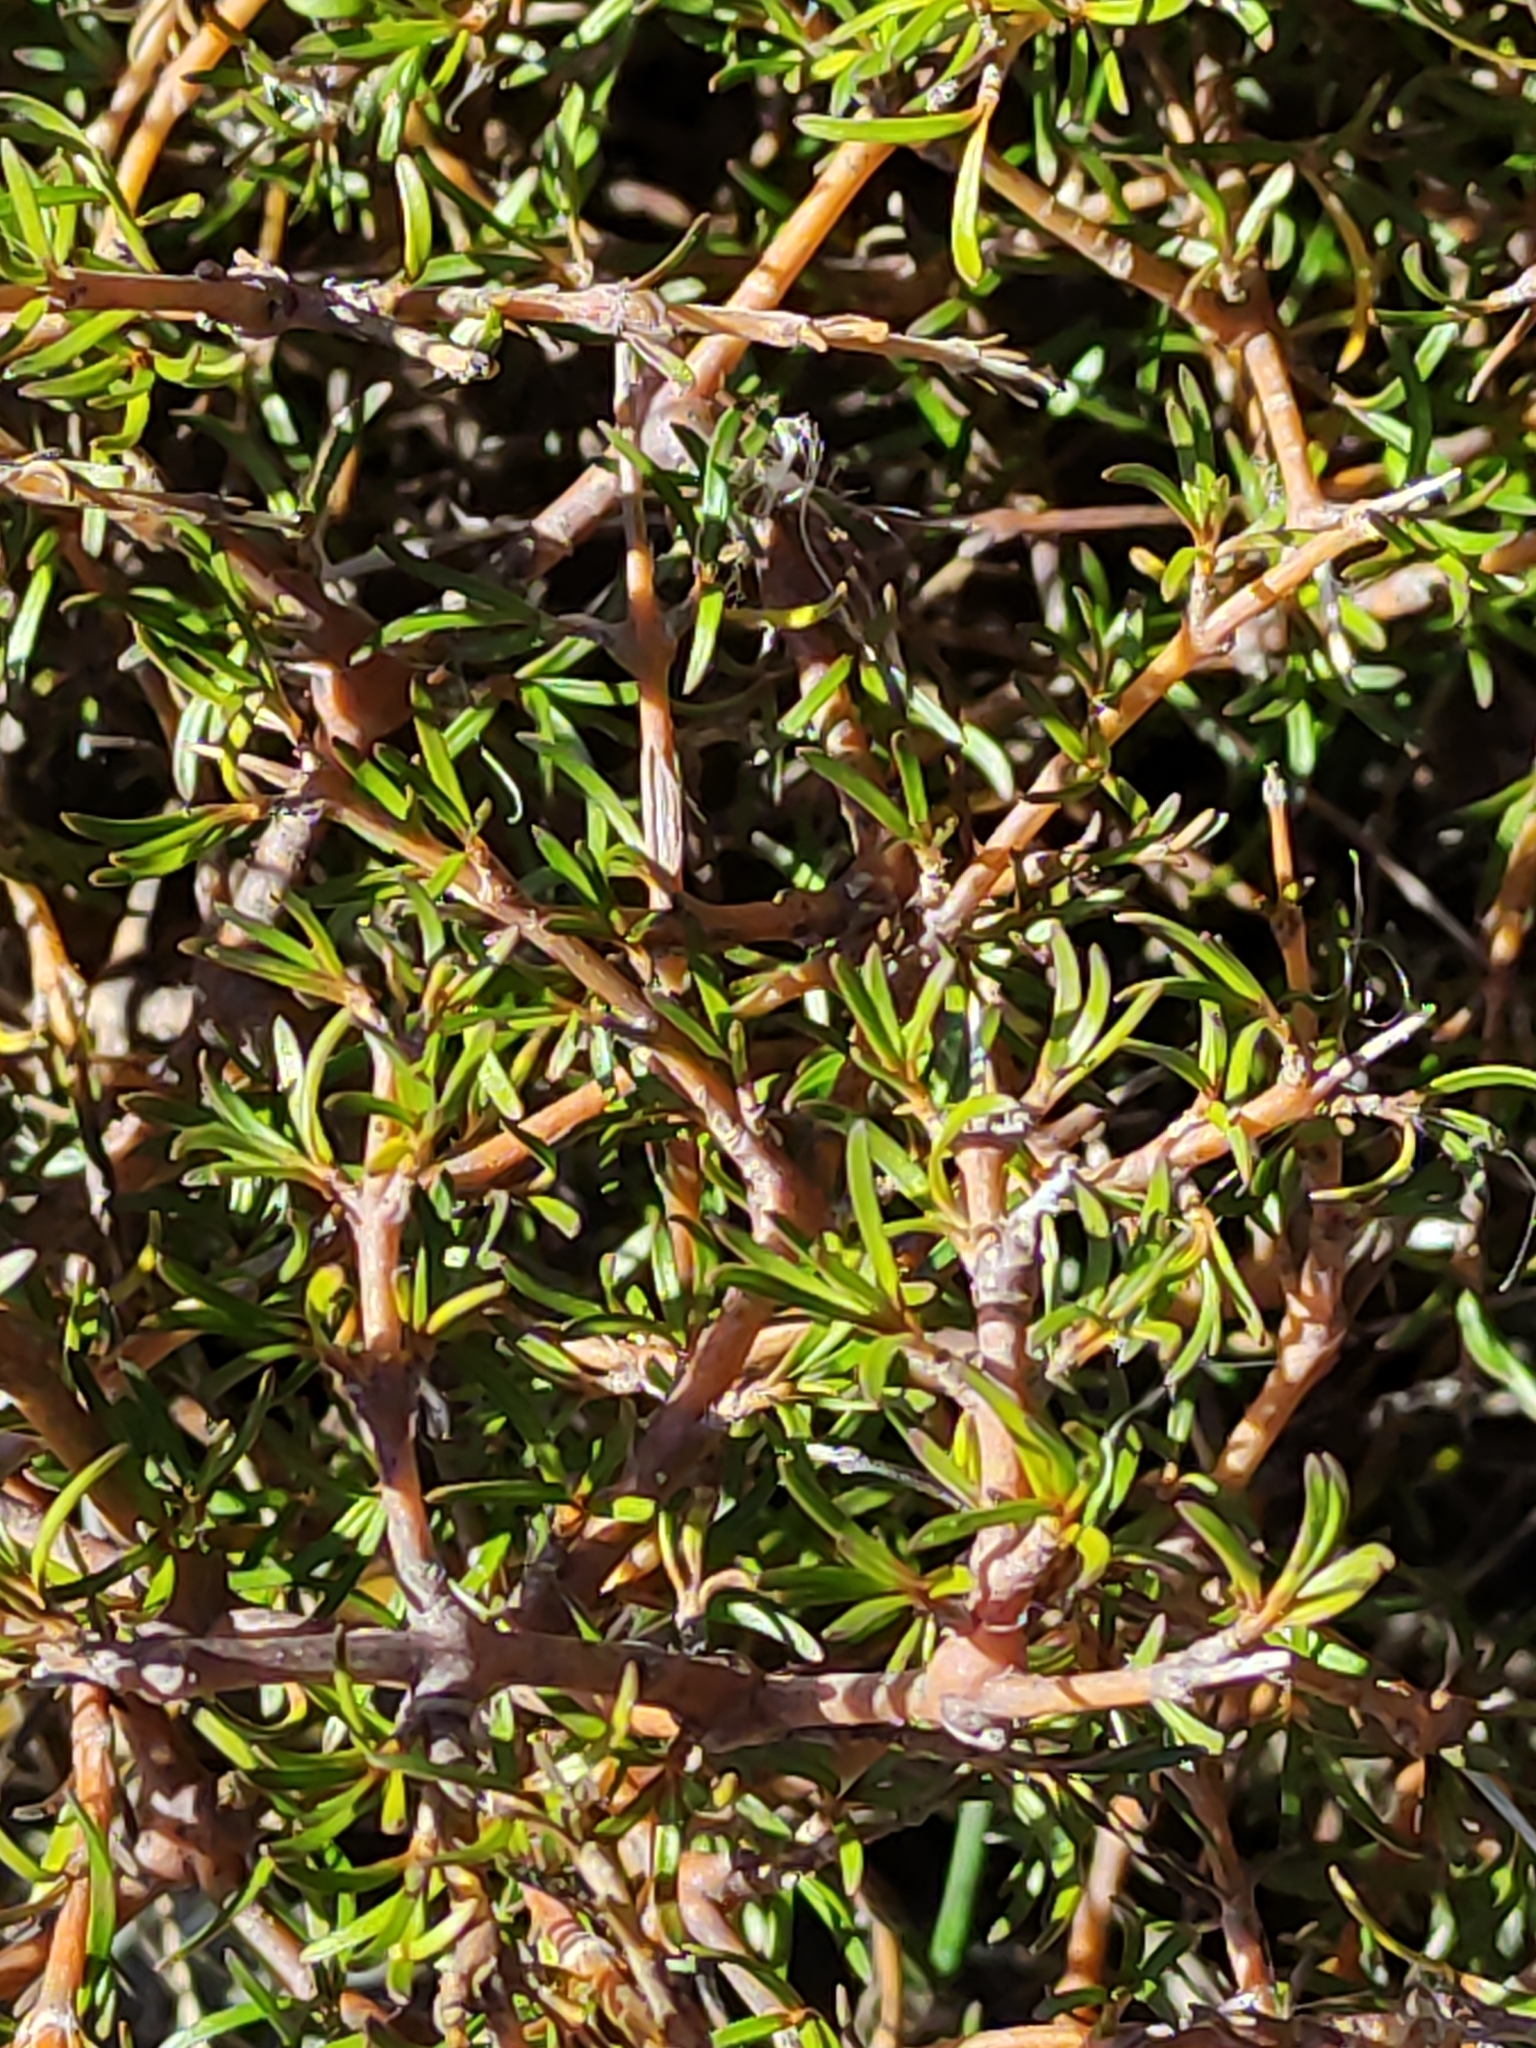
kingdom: Plantae
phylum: Tracheophyta
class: Magnoliopsida
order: Gentianales
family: Rubiaceae
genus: Coprosma
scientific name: Coprosma rugosa
